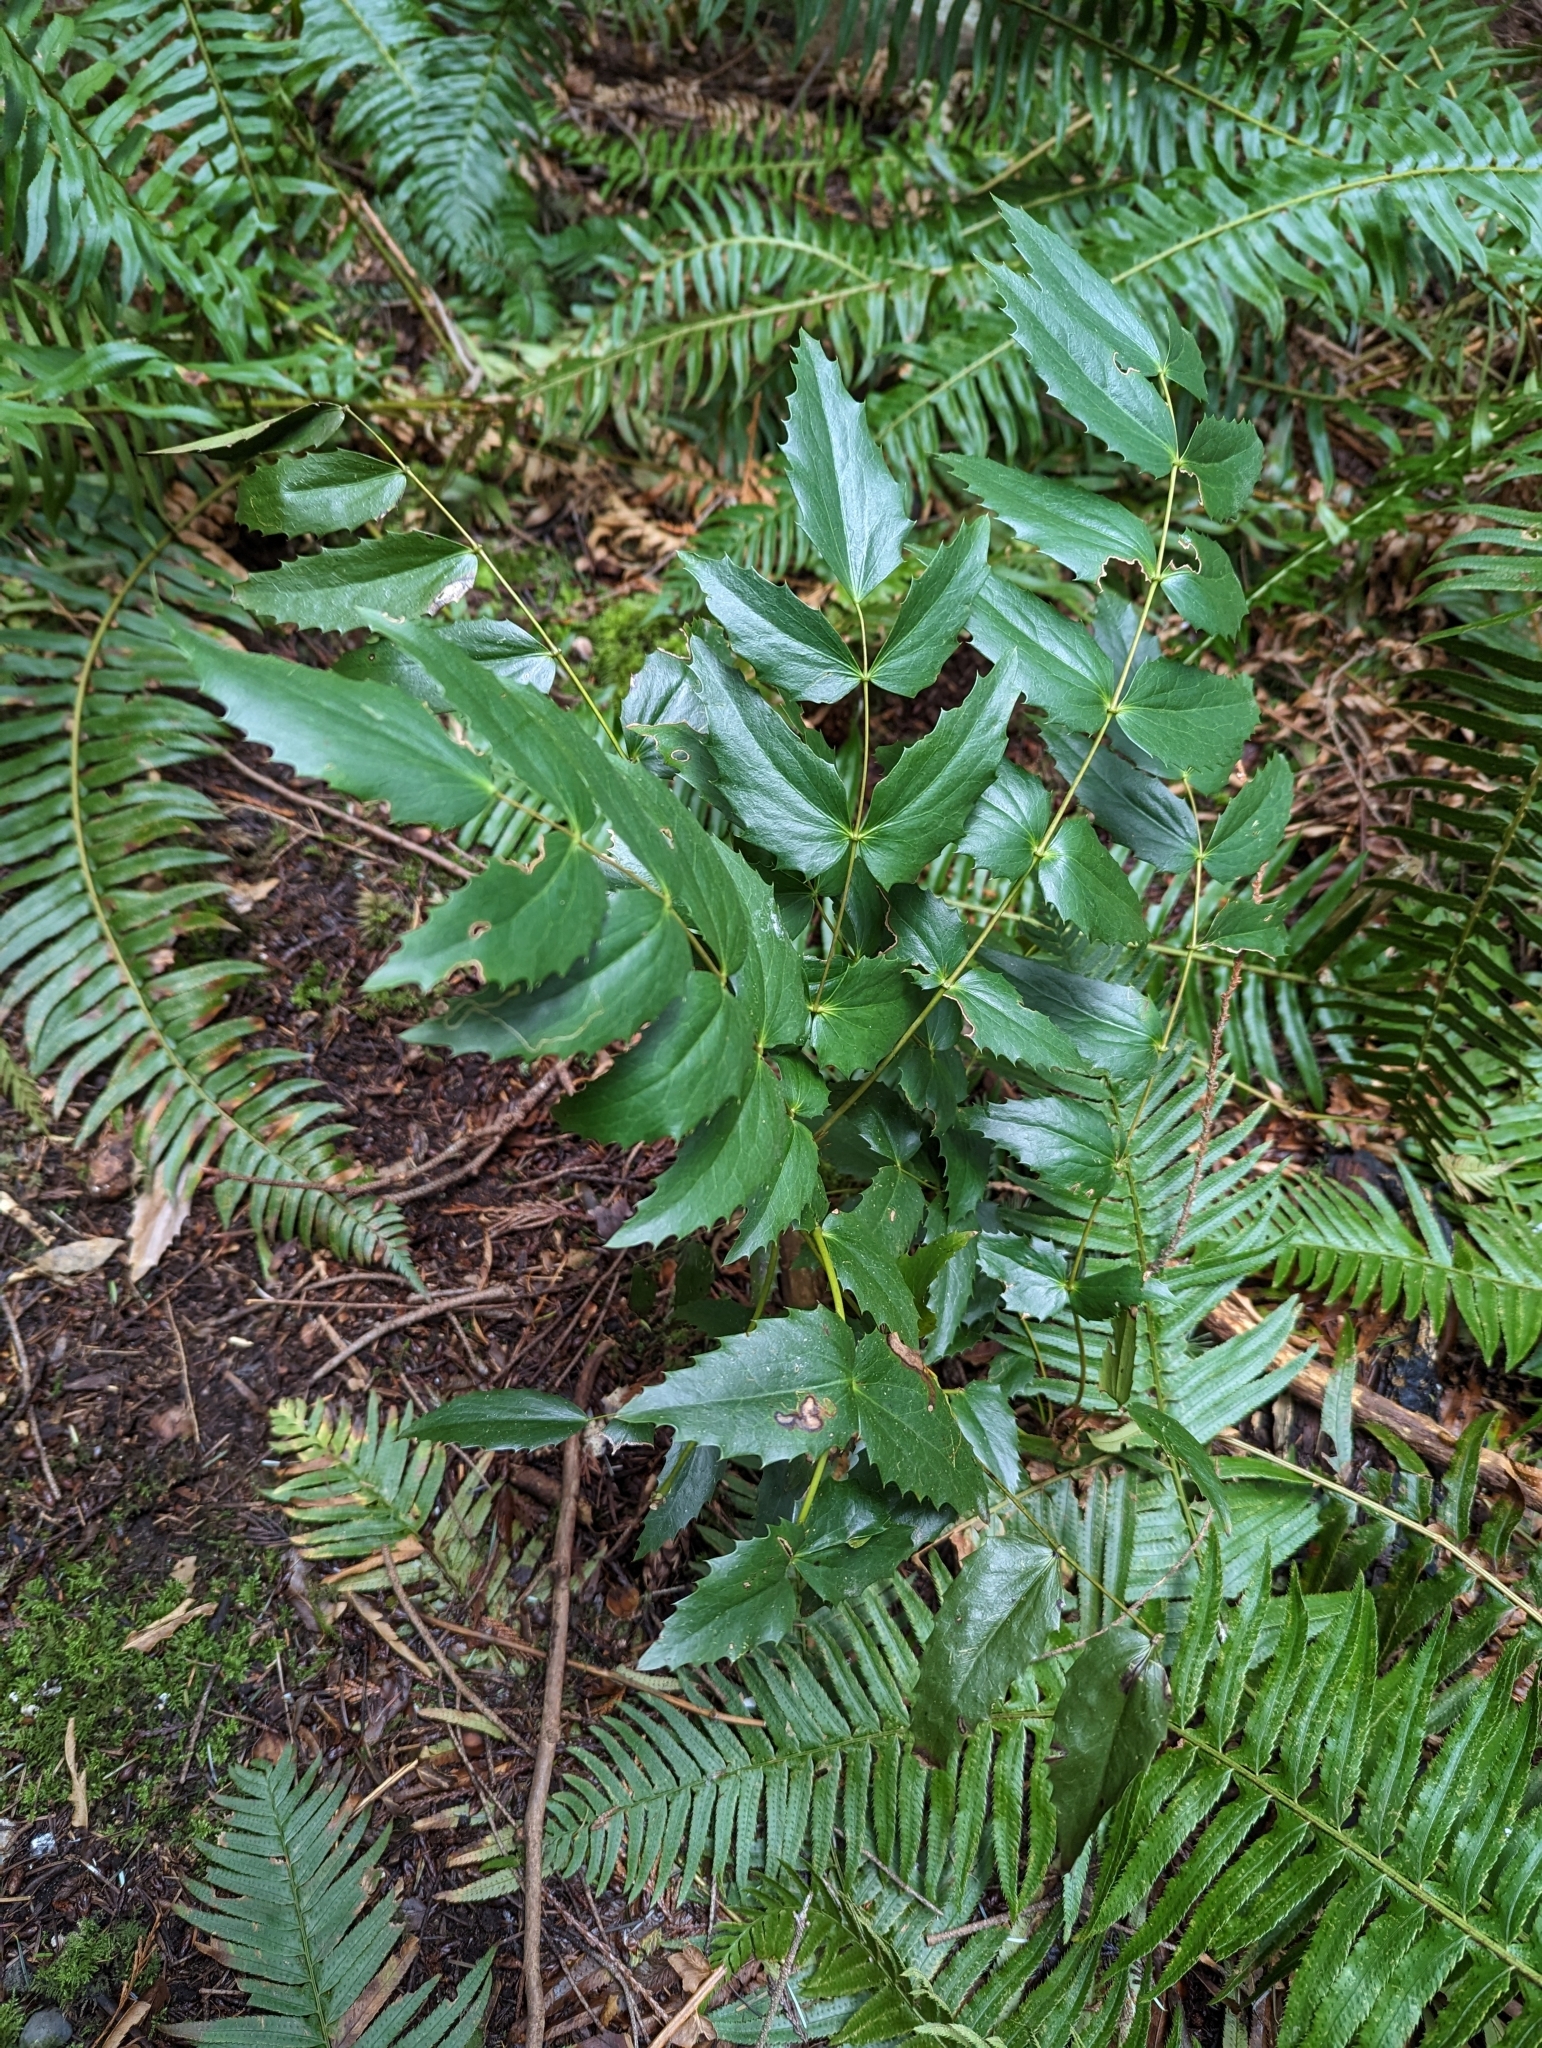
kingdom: Plantae
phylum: Tracheophyta
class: Magnoliopsida
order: Ranunculales
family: Berberidaceae
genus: Mahonia
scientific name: Mahonia nervosa
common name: Cascade oregon-grape
